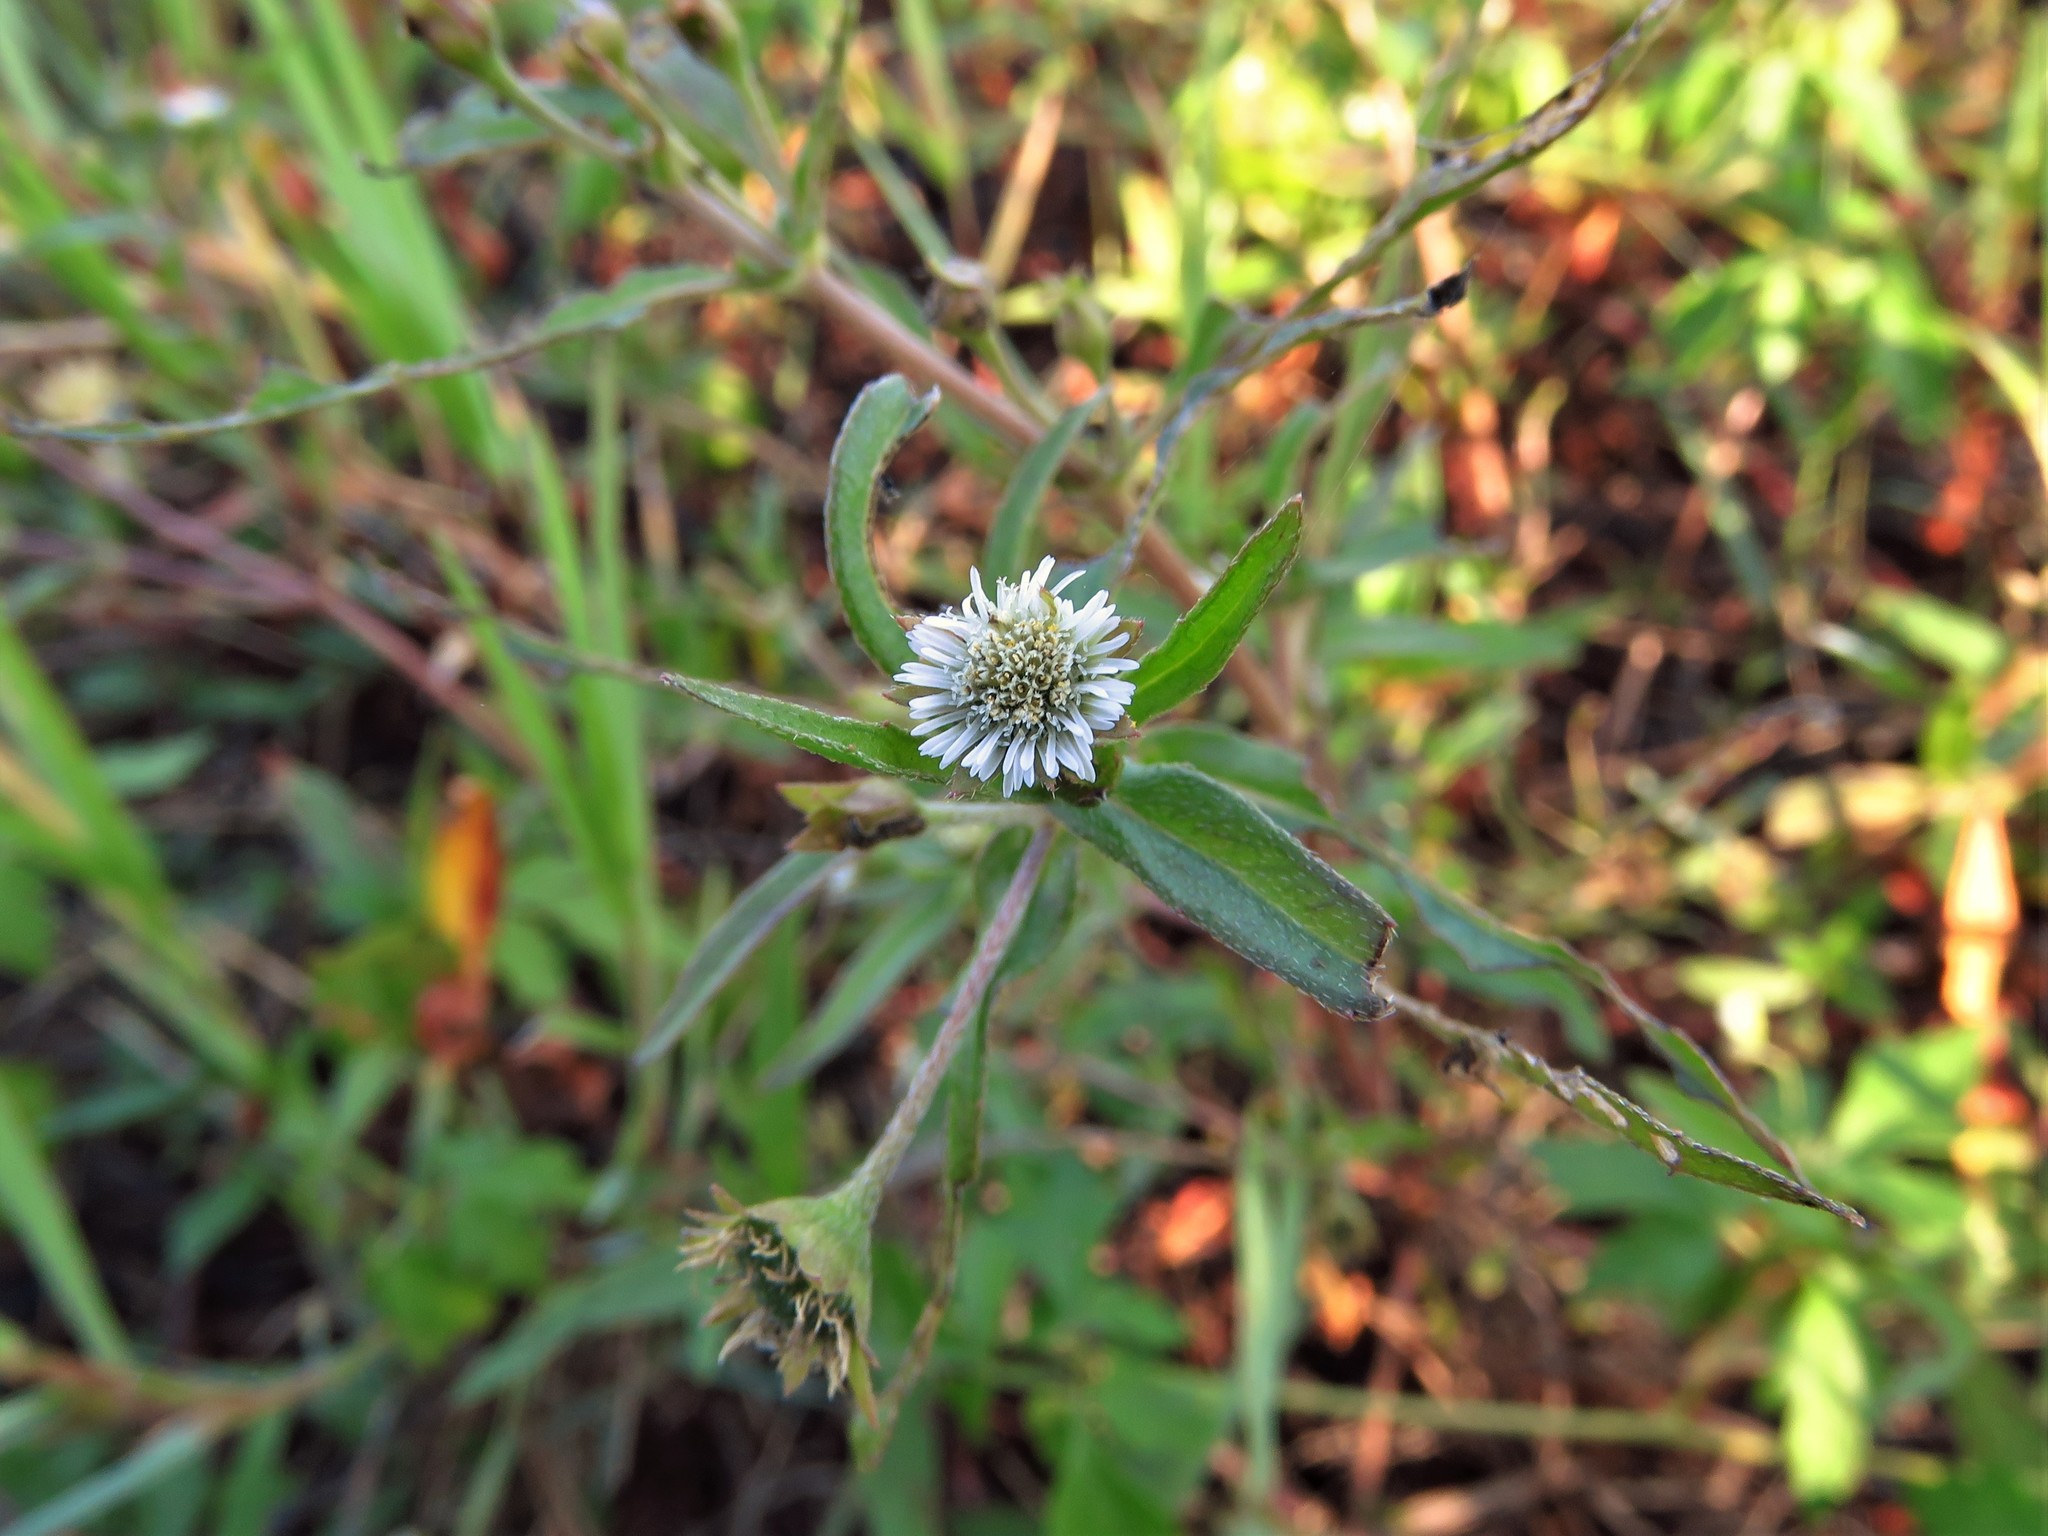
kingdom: Plantae
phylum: Tracheophyta
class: Magnoliopsida
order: Asterales
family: Asteraceae
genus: Eclipta
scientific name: Eclipta prostrata
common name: False daisy
